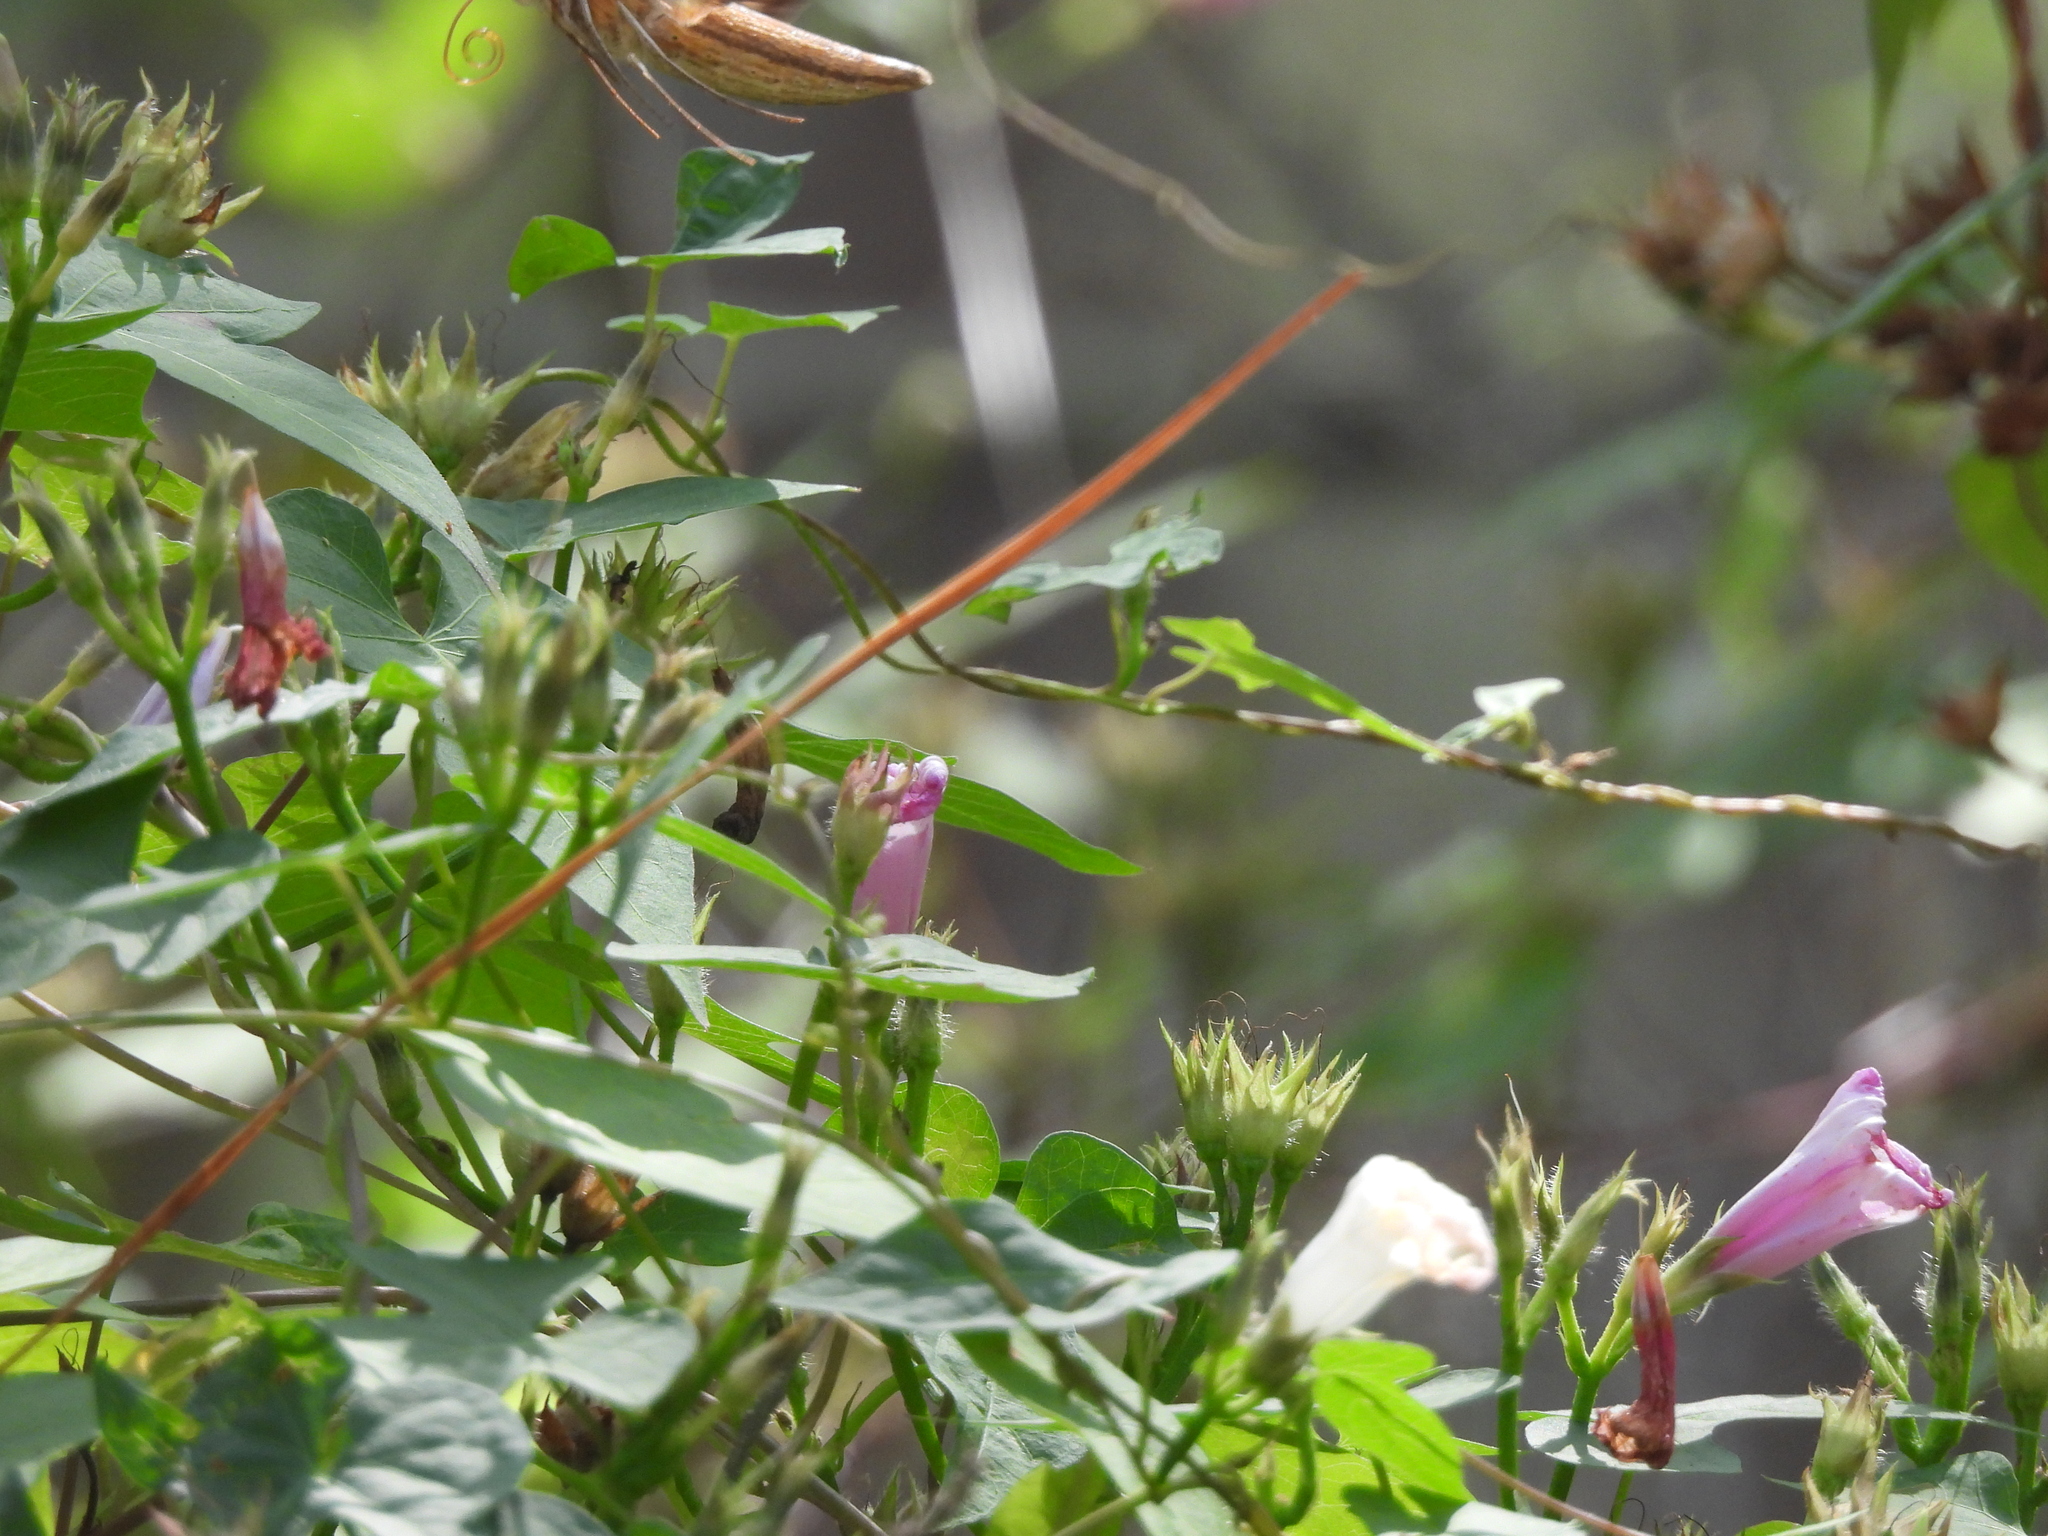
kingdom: Animalia
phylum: Arthropoda
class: Insecta
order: Lepidoptera
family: Sphingidae
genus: Xylophanes
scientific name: Xylophanes tersa
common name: Tersa sphinx
